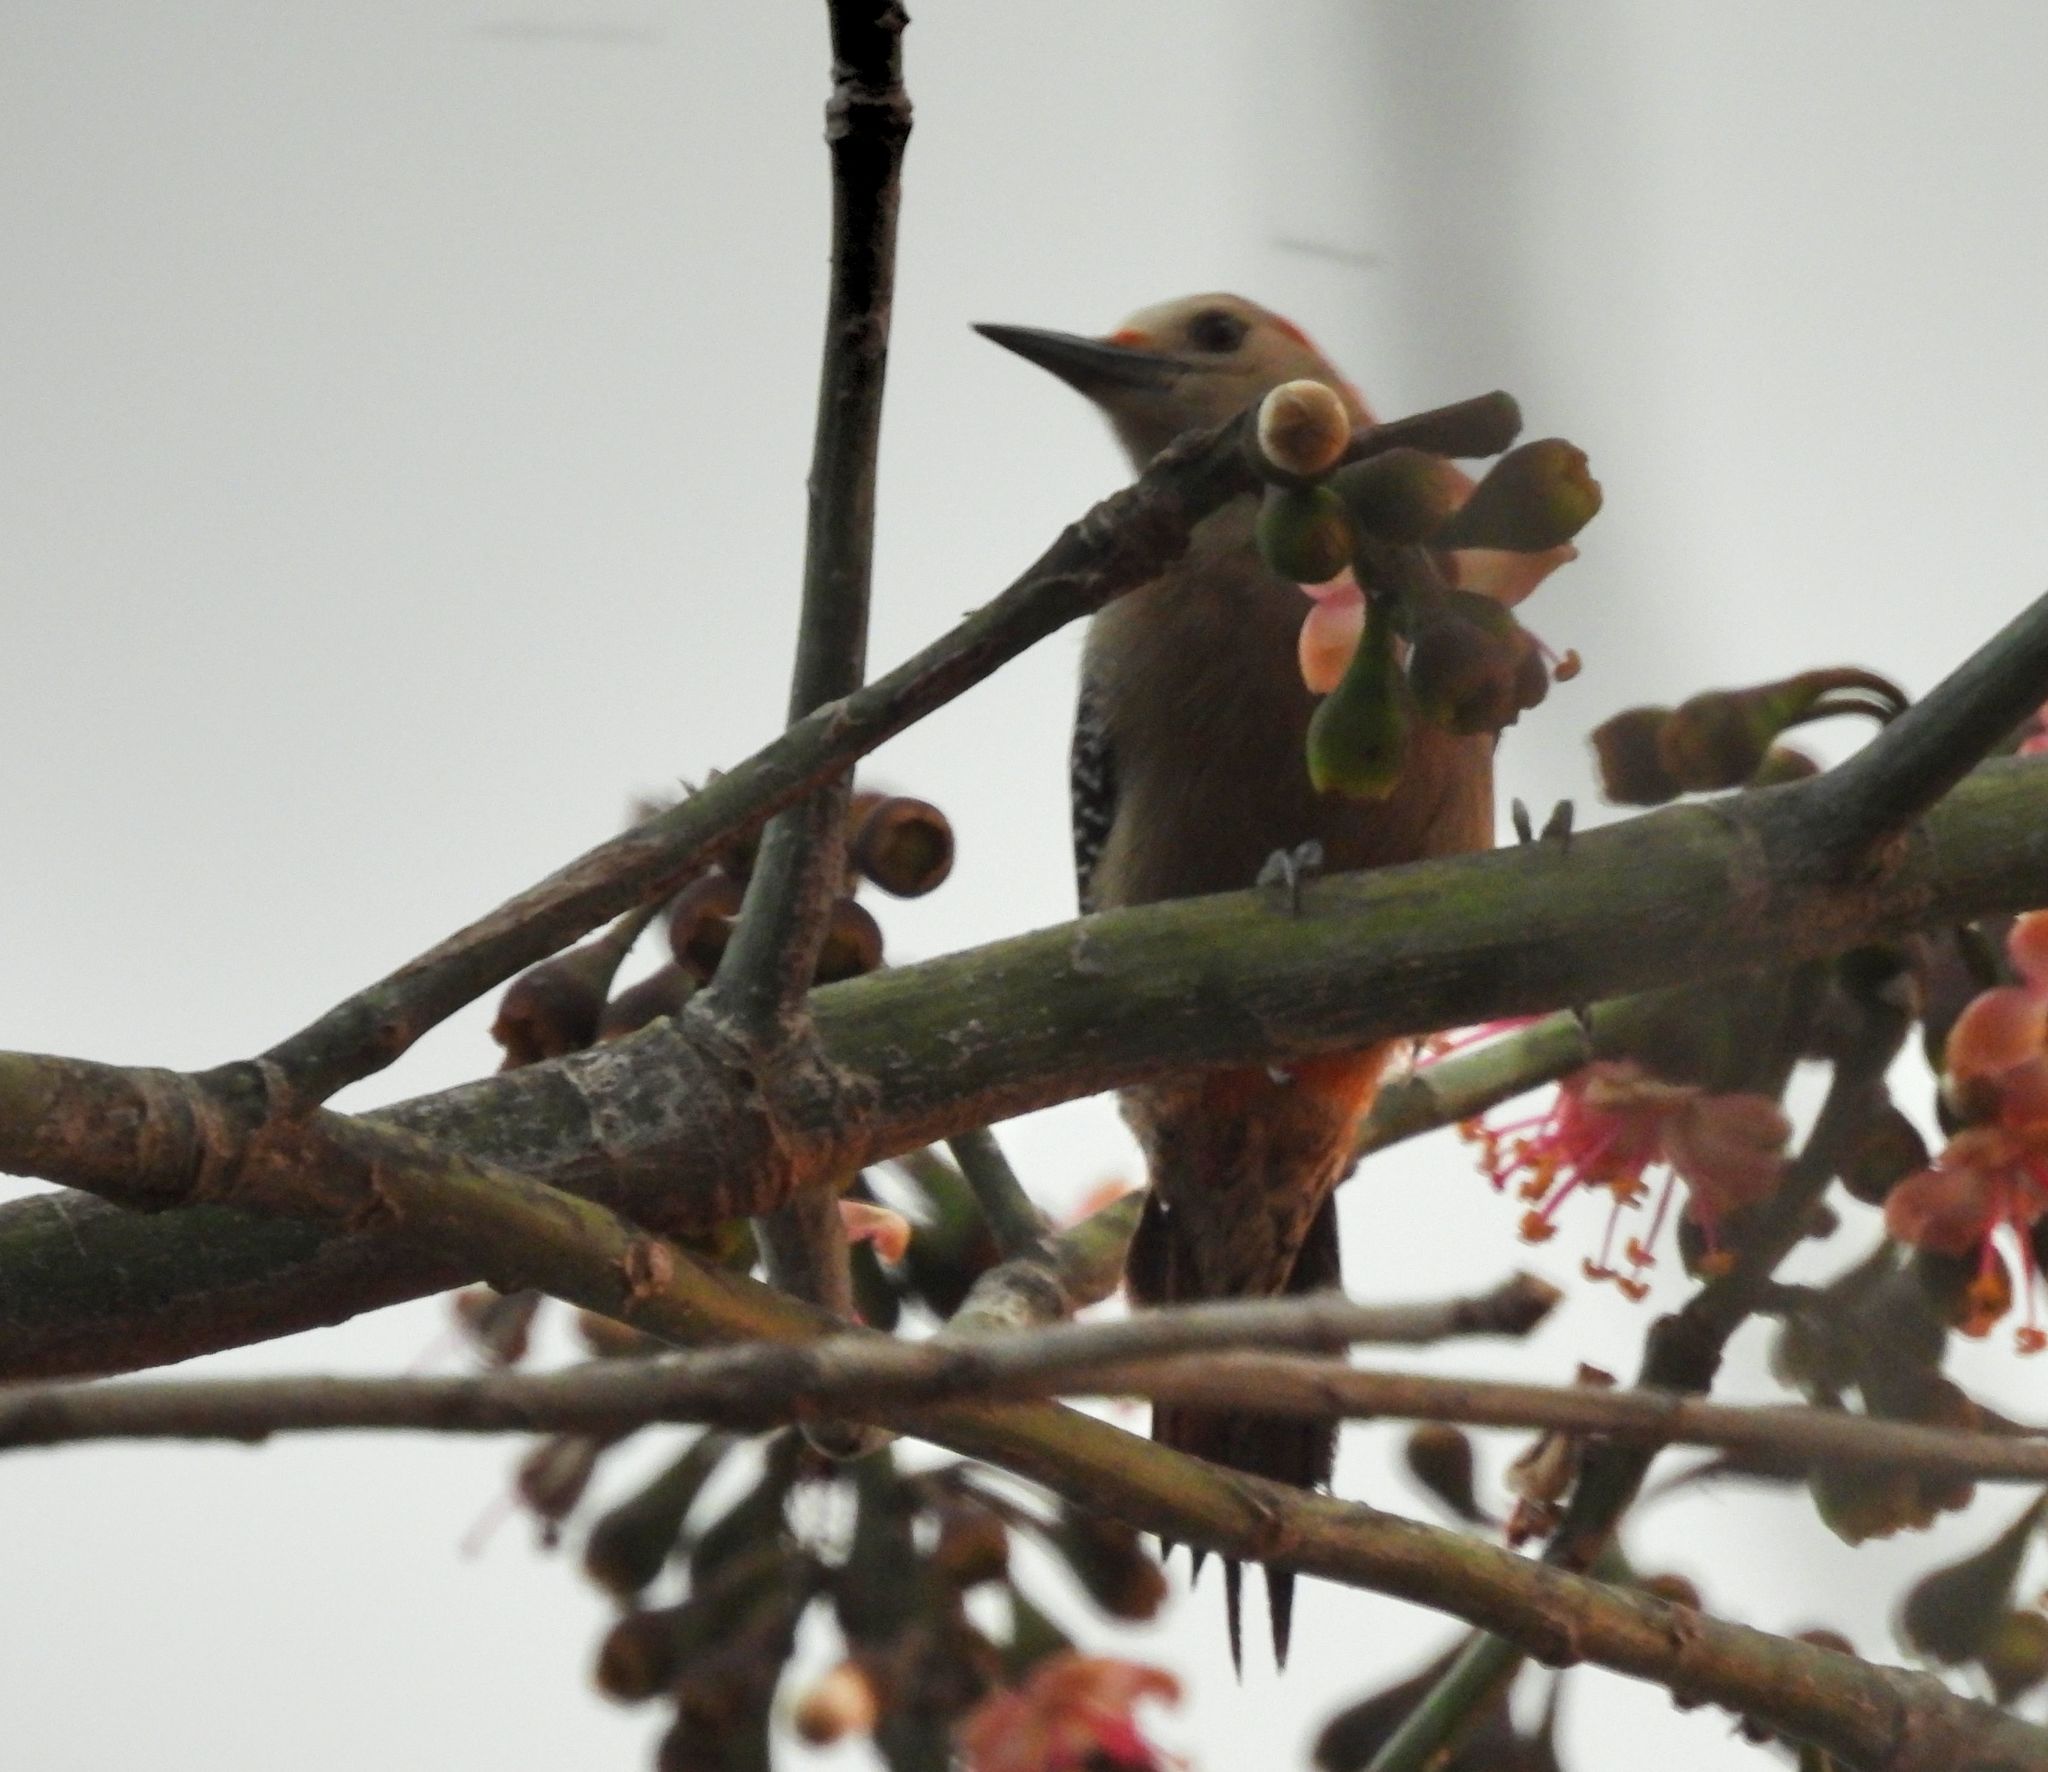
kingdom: Animalia
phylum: Chordata
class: Aves
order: Piciformes
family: Picidae
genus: Melanerpes
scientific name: Melanerpes aurifrons
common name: Golden-fronted woodpecker
